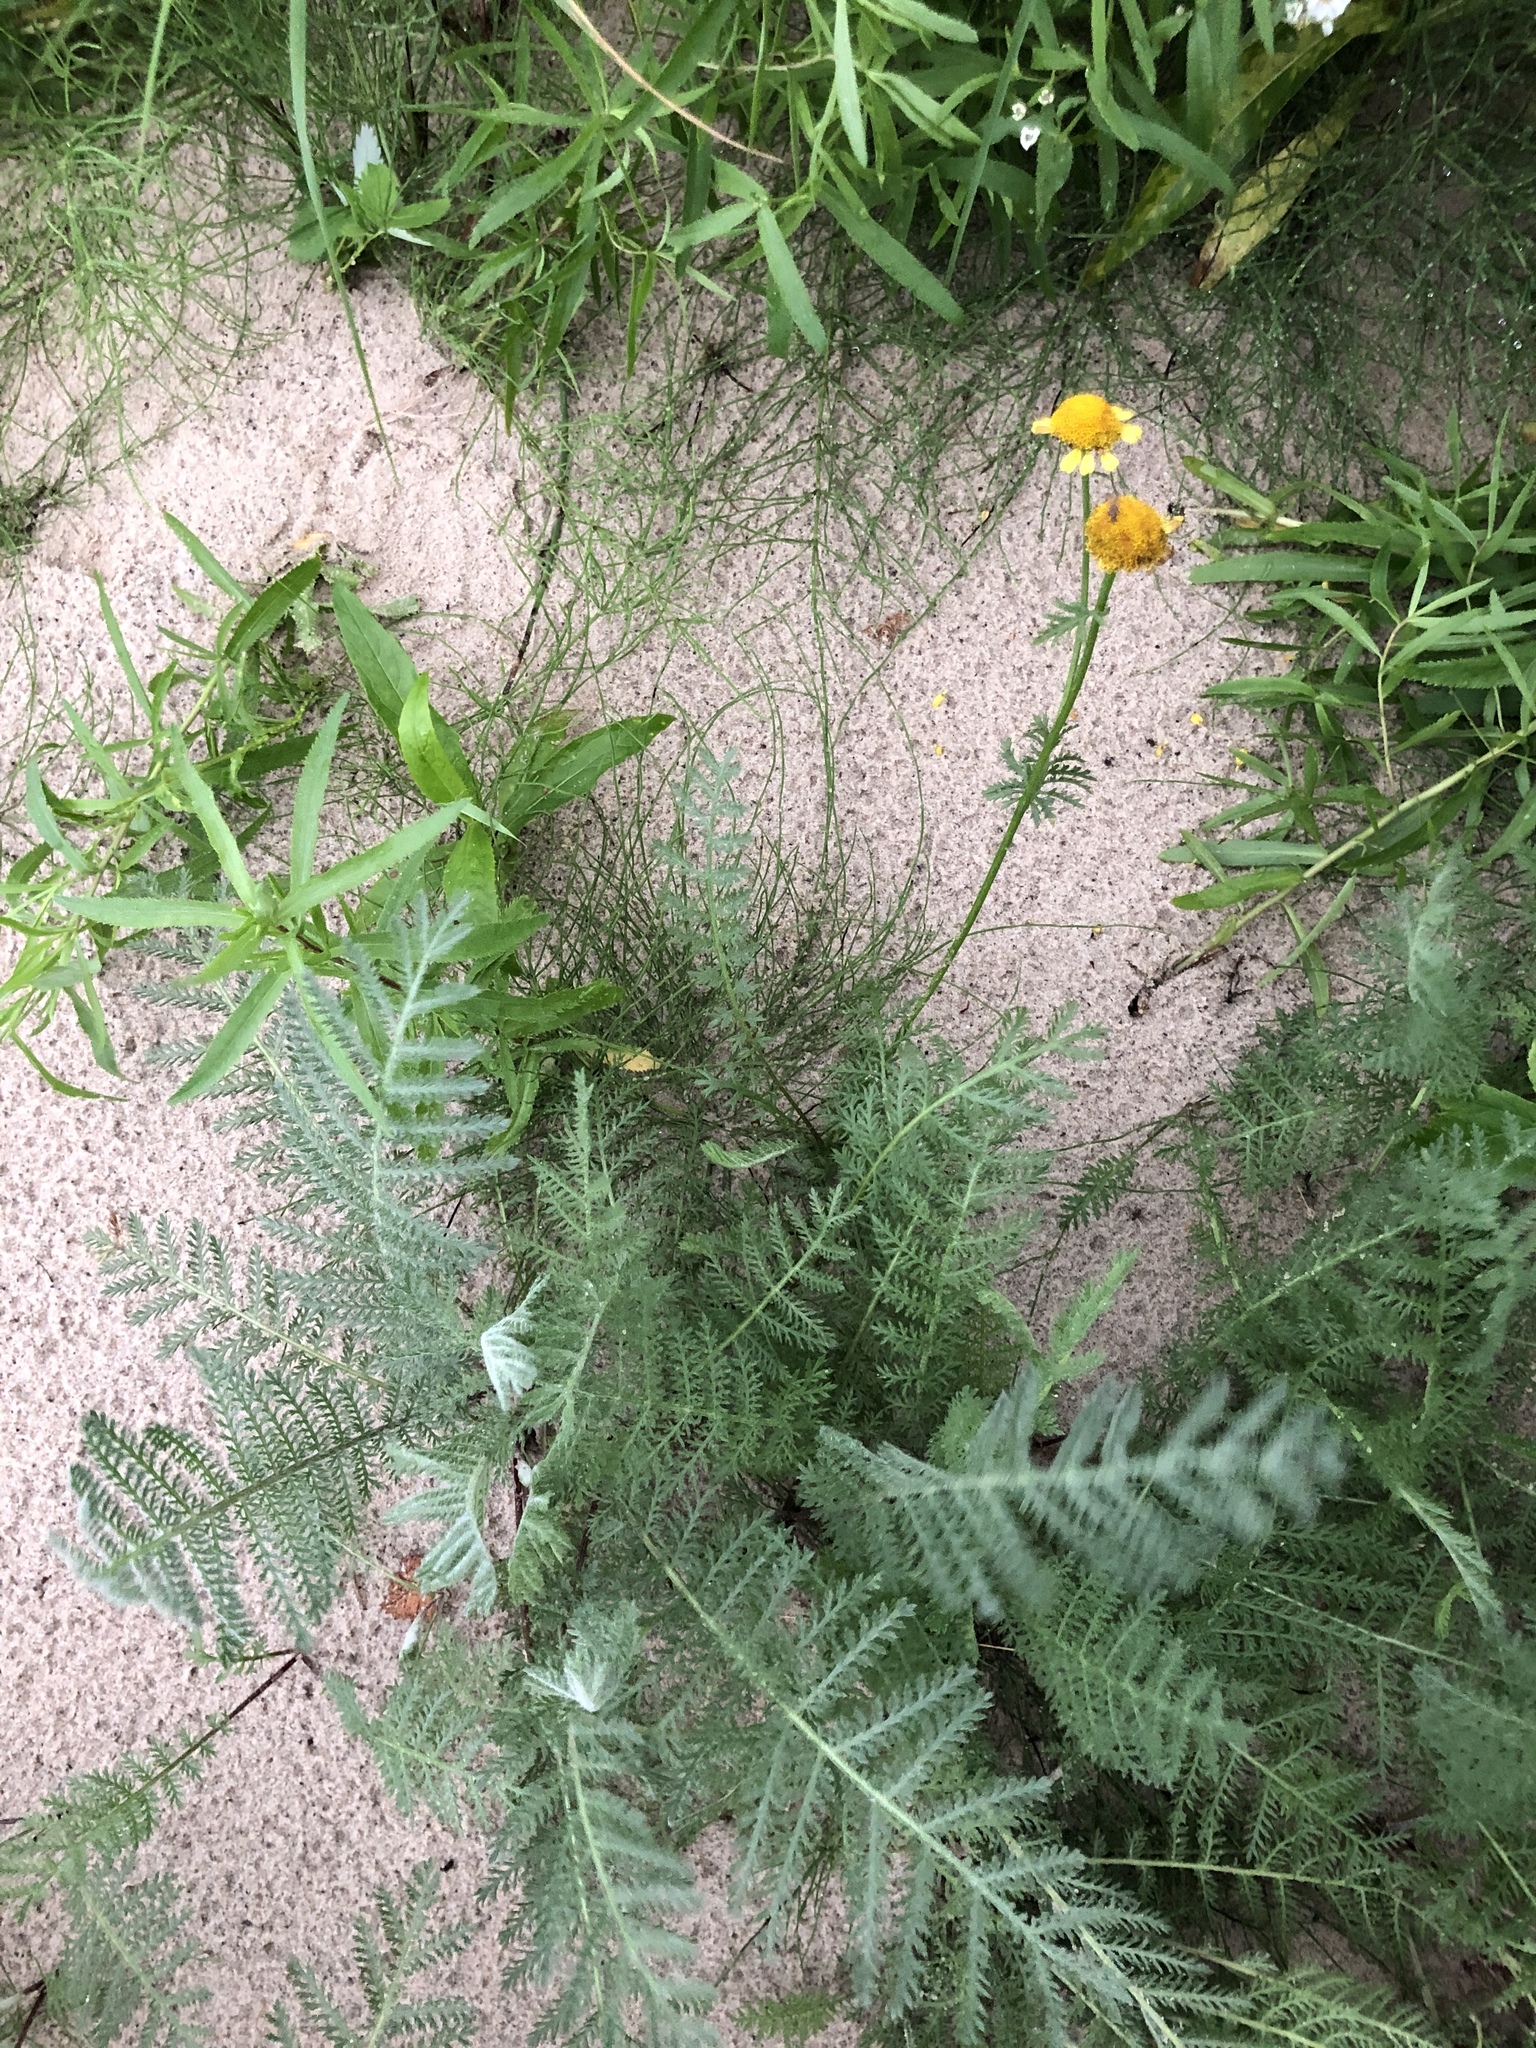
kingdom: Plantae
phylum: Tracheophyta
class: Magnoliopsida
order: Asterales
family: Asteraceae
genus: Tanacetum
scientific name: Tanacetum bipinnatum
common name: Dwarf tansy
